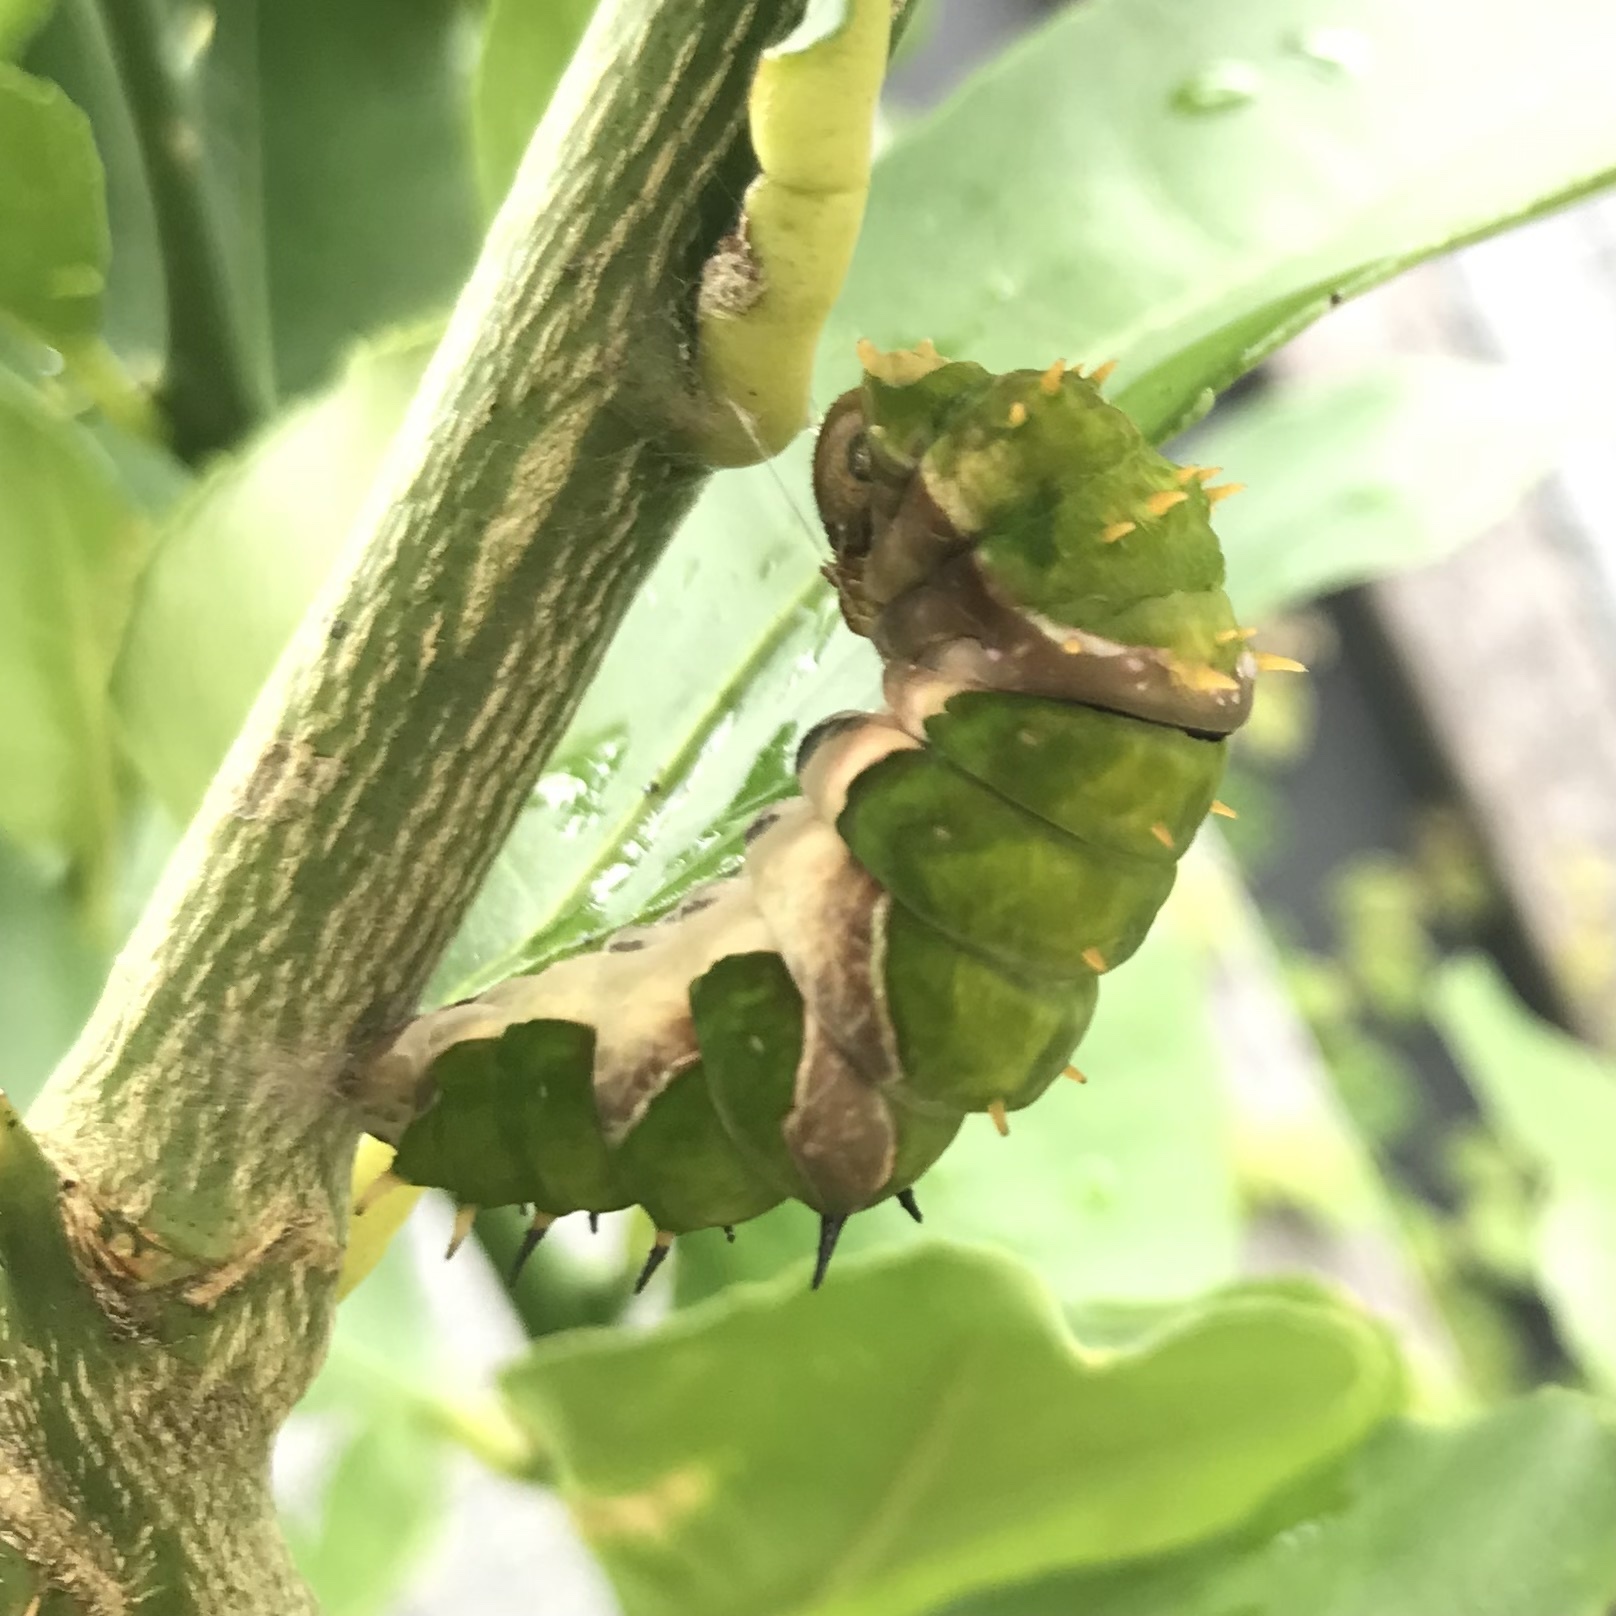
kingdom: Animalia
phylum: Arthropoda
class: Insecta
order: Lepidoptera
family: Papilionidae
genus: Papilio
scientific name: Papilio aegeus
